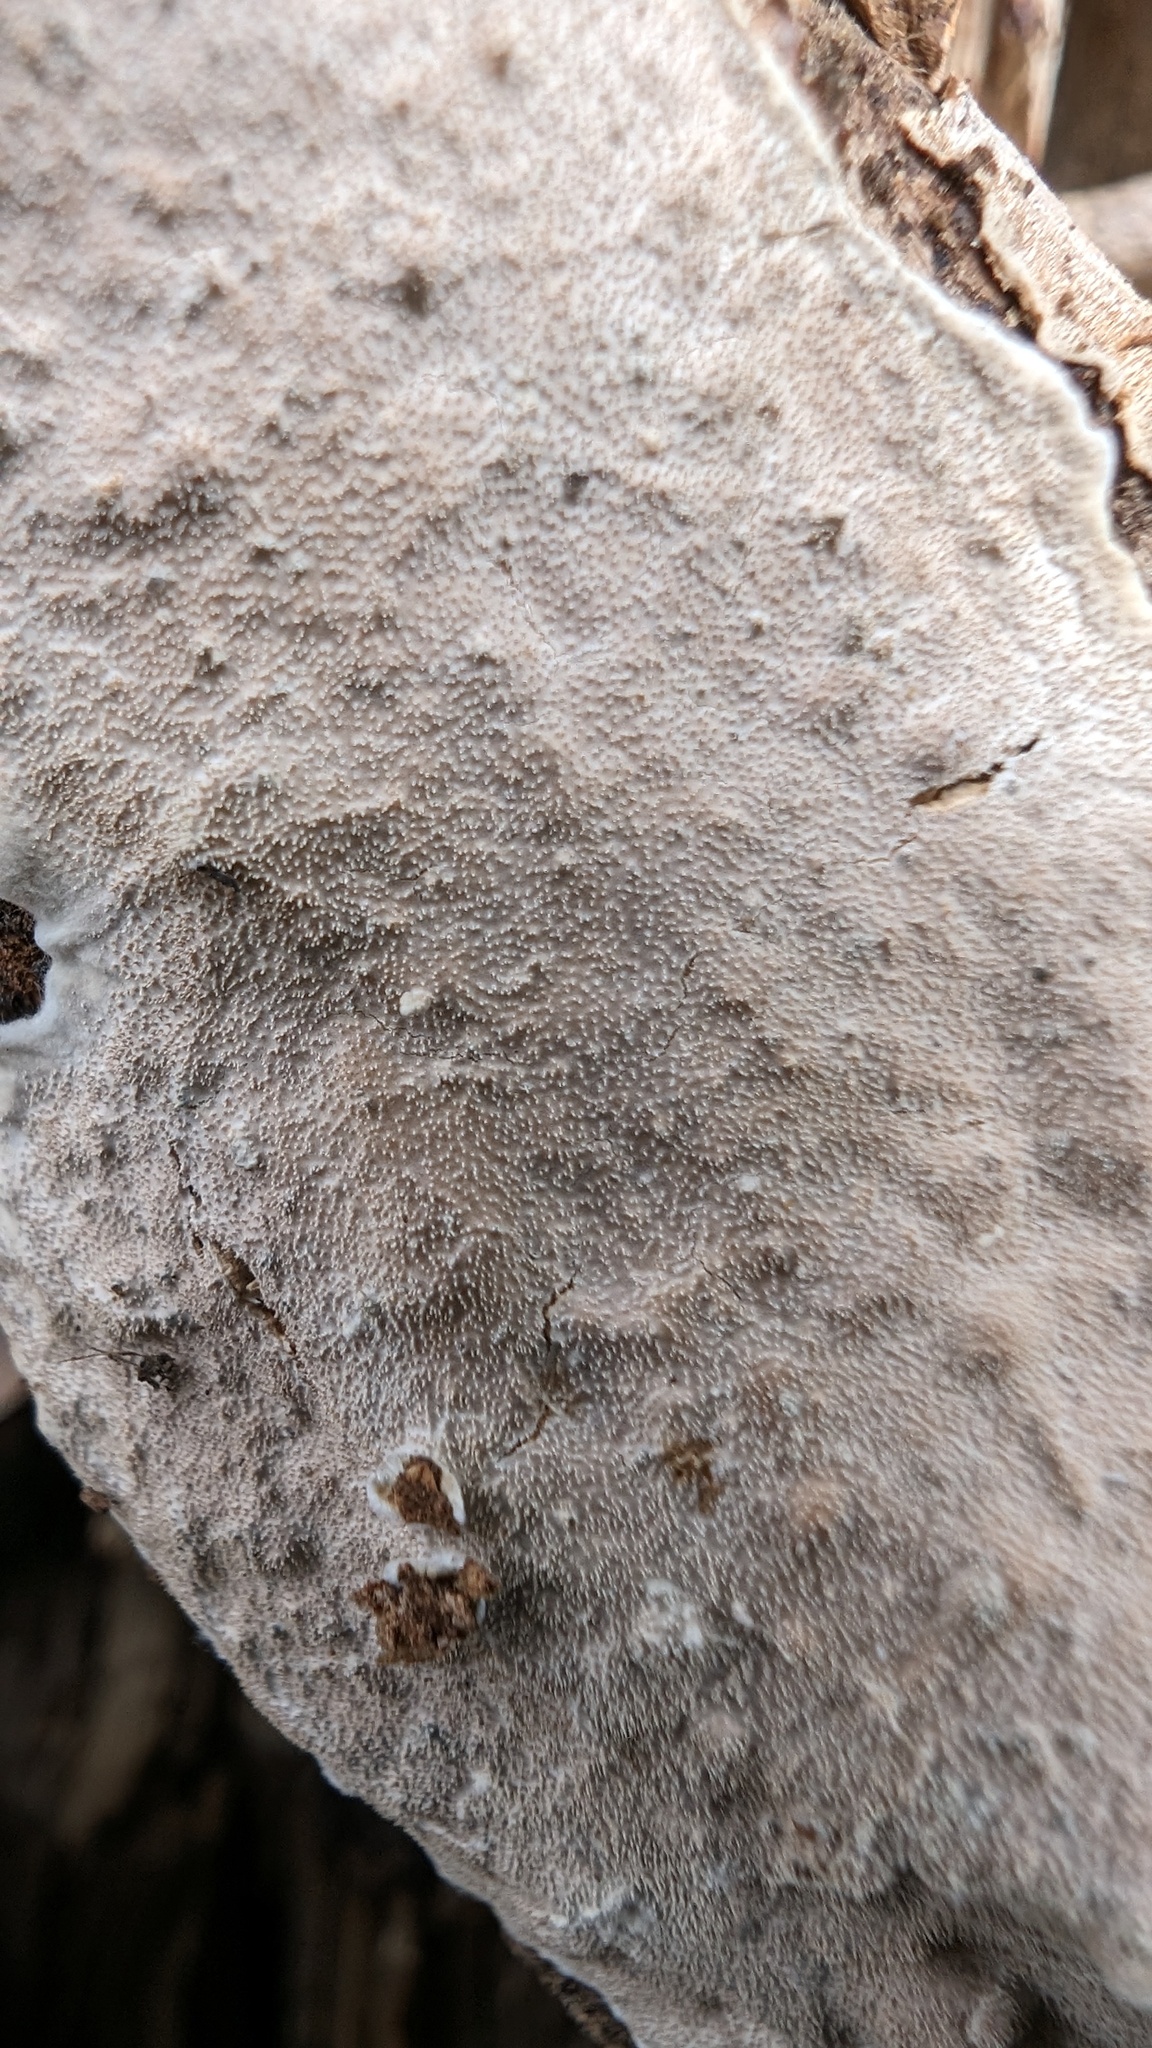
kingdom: Fungi
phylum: Basidiomycota
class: Agaricomycetes
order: Auriculariales
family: Auriculariaceae
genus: Heterochaete
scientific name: Heterochaete delicata
